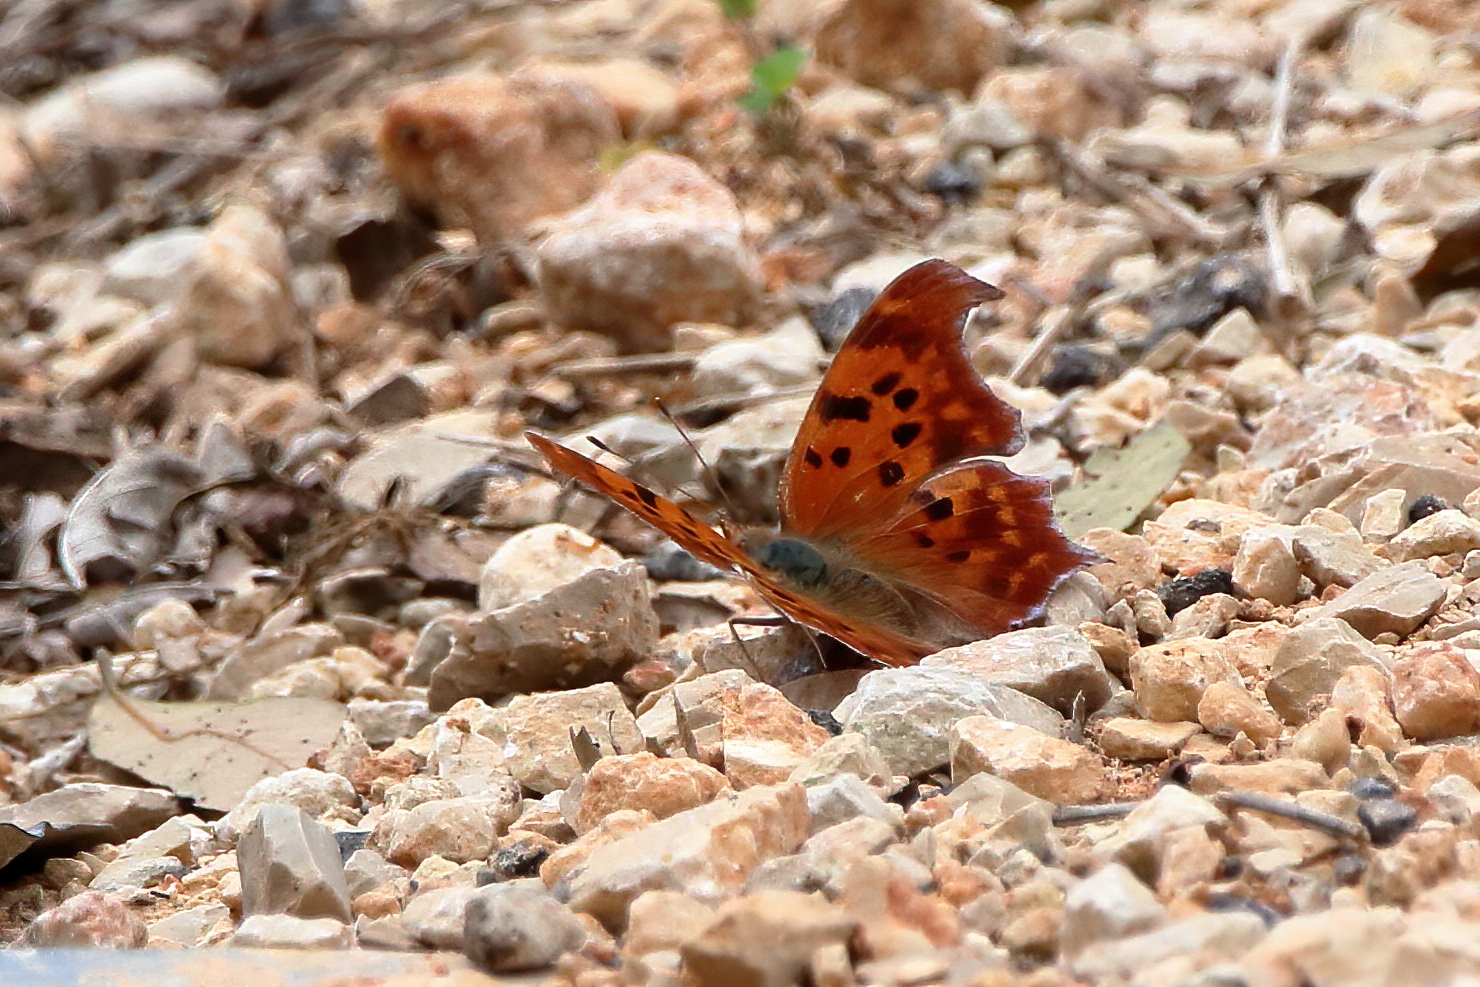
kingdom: Animalia
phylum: Arthropoda
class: Insecta
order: Lepidoptera
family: Nymphalidae
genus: Polygonia
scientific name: Polygonia interrogationis
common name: Question mark
